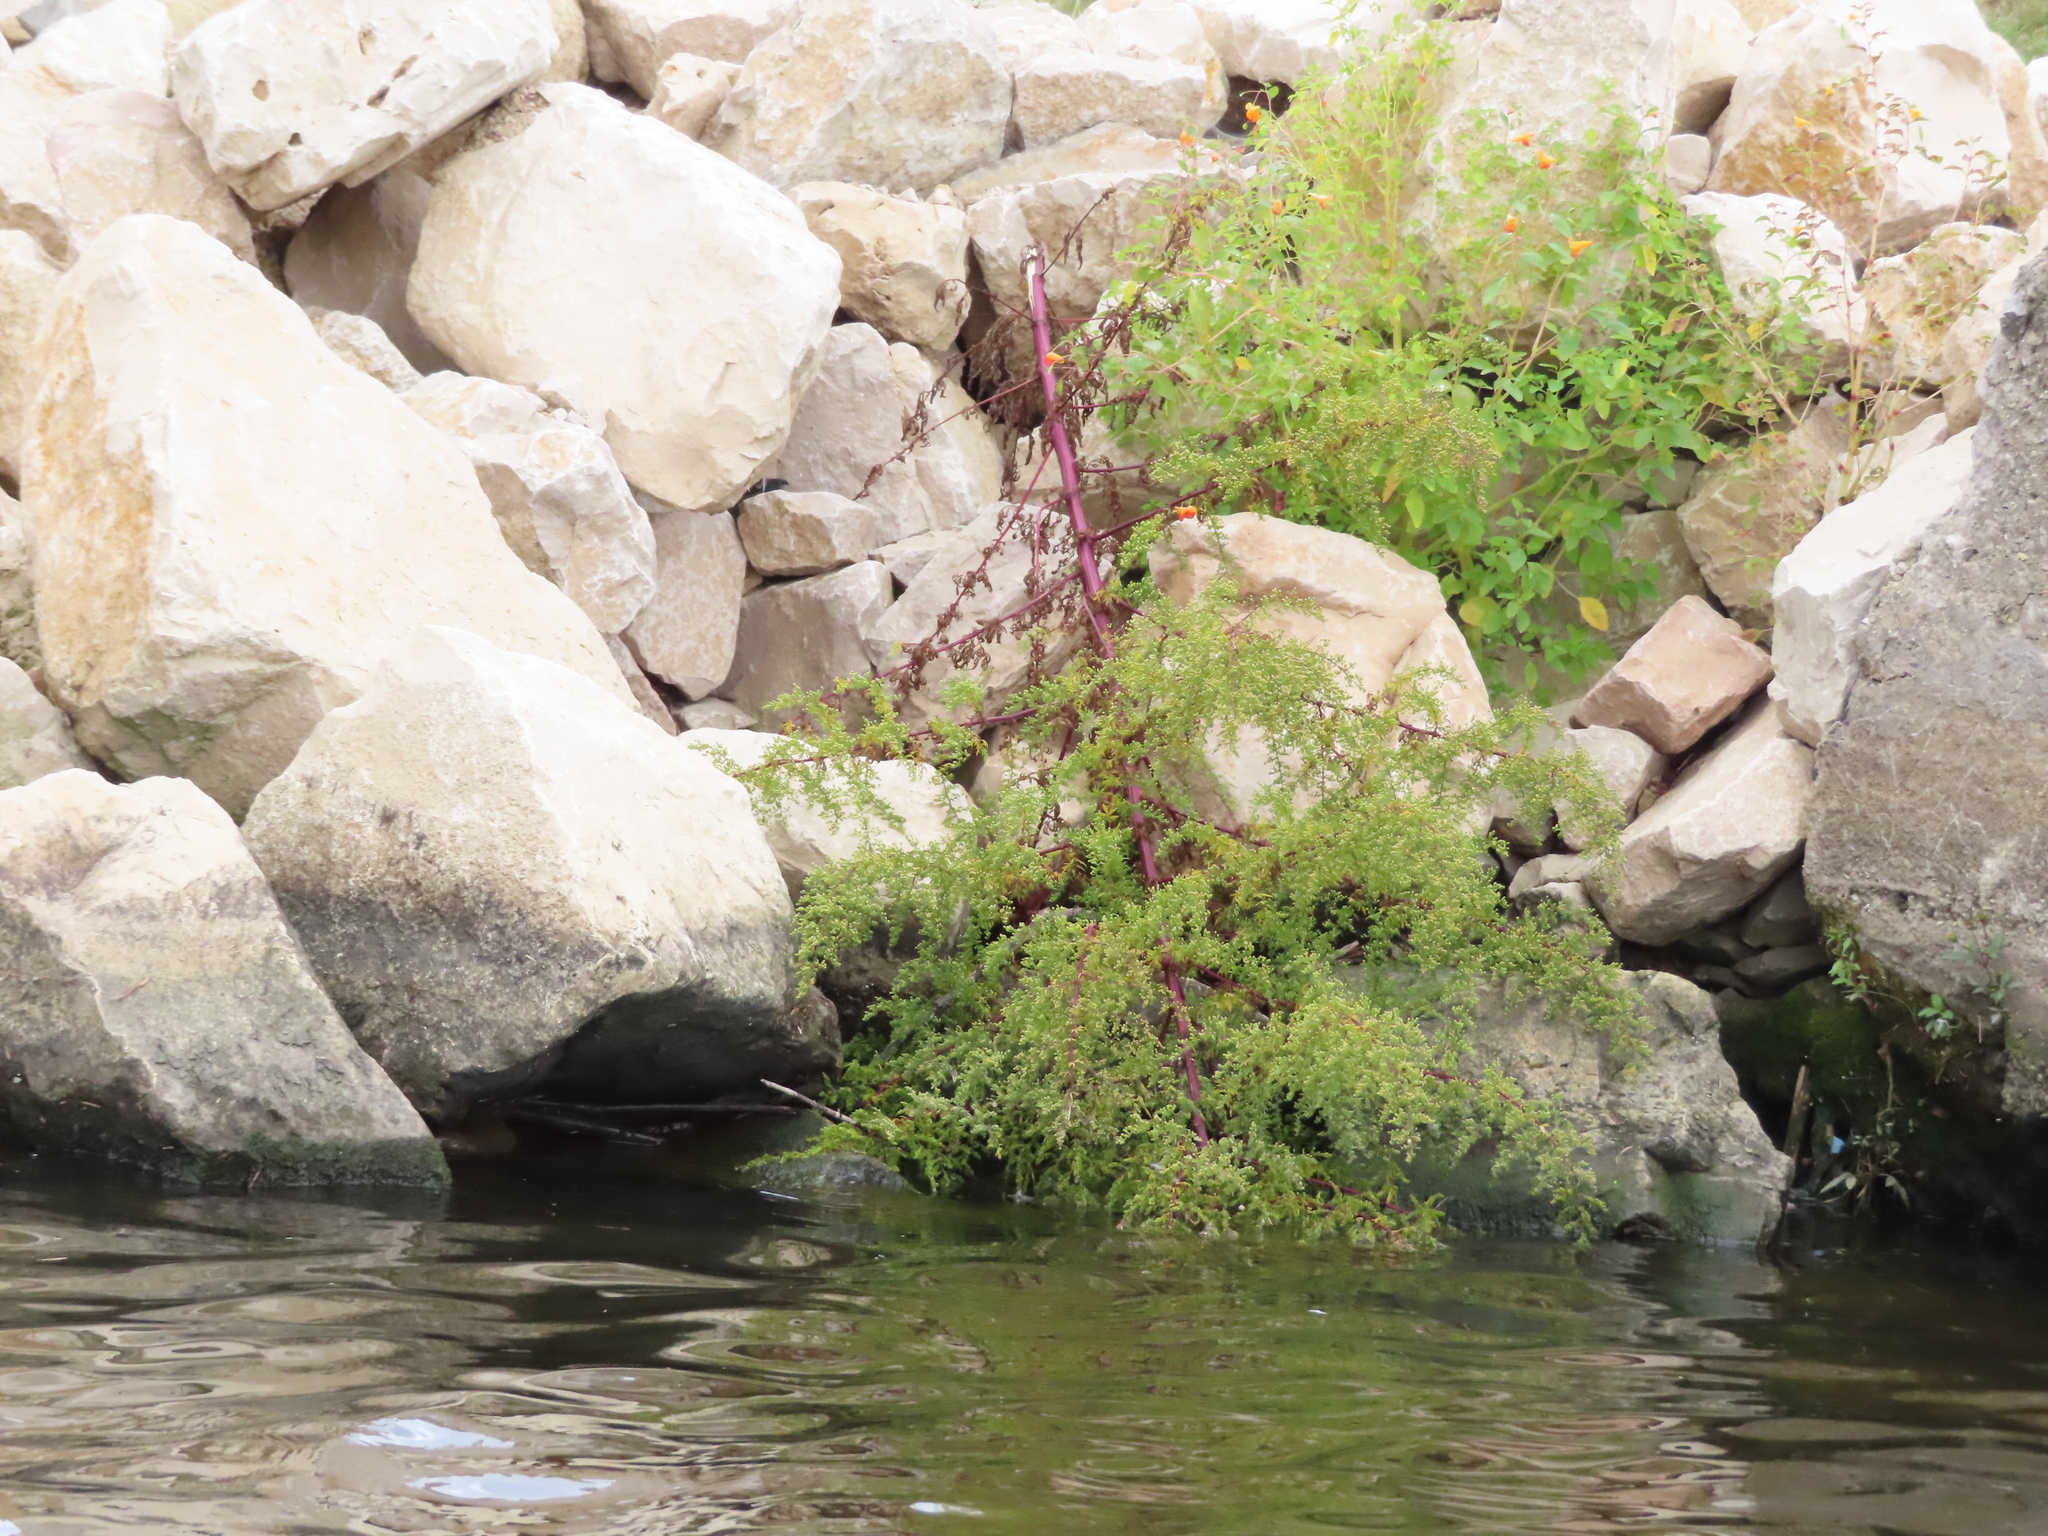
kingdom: Plantae
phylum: Tracheophyta
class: Magnoliopsida
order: Asterales
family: Asteraceae
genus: Artemisia
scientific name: Artemisia annua
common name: Sweet sagewort
